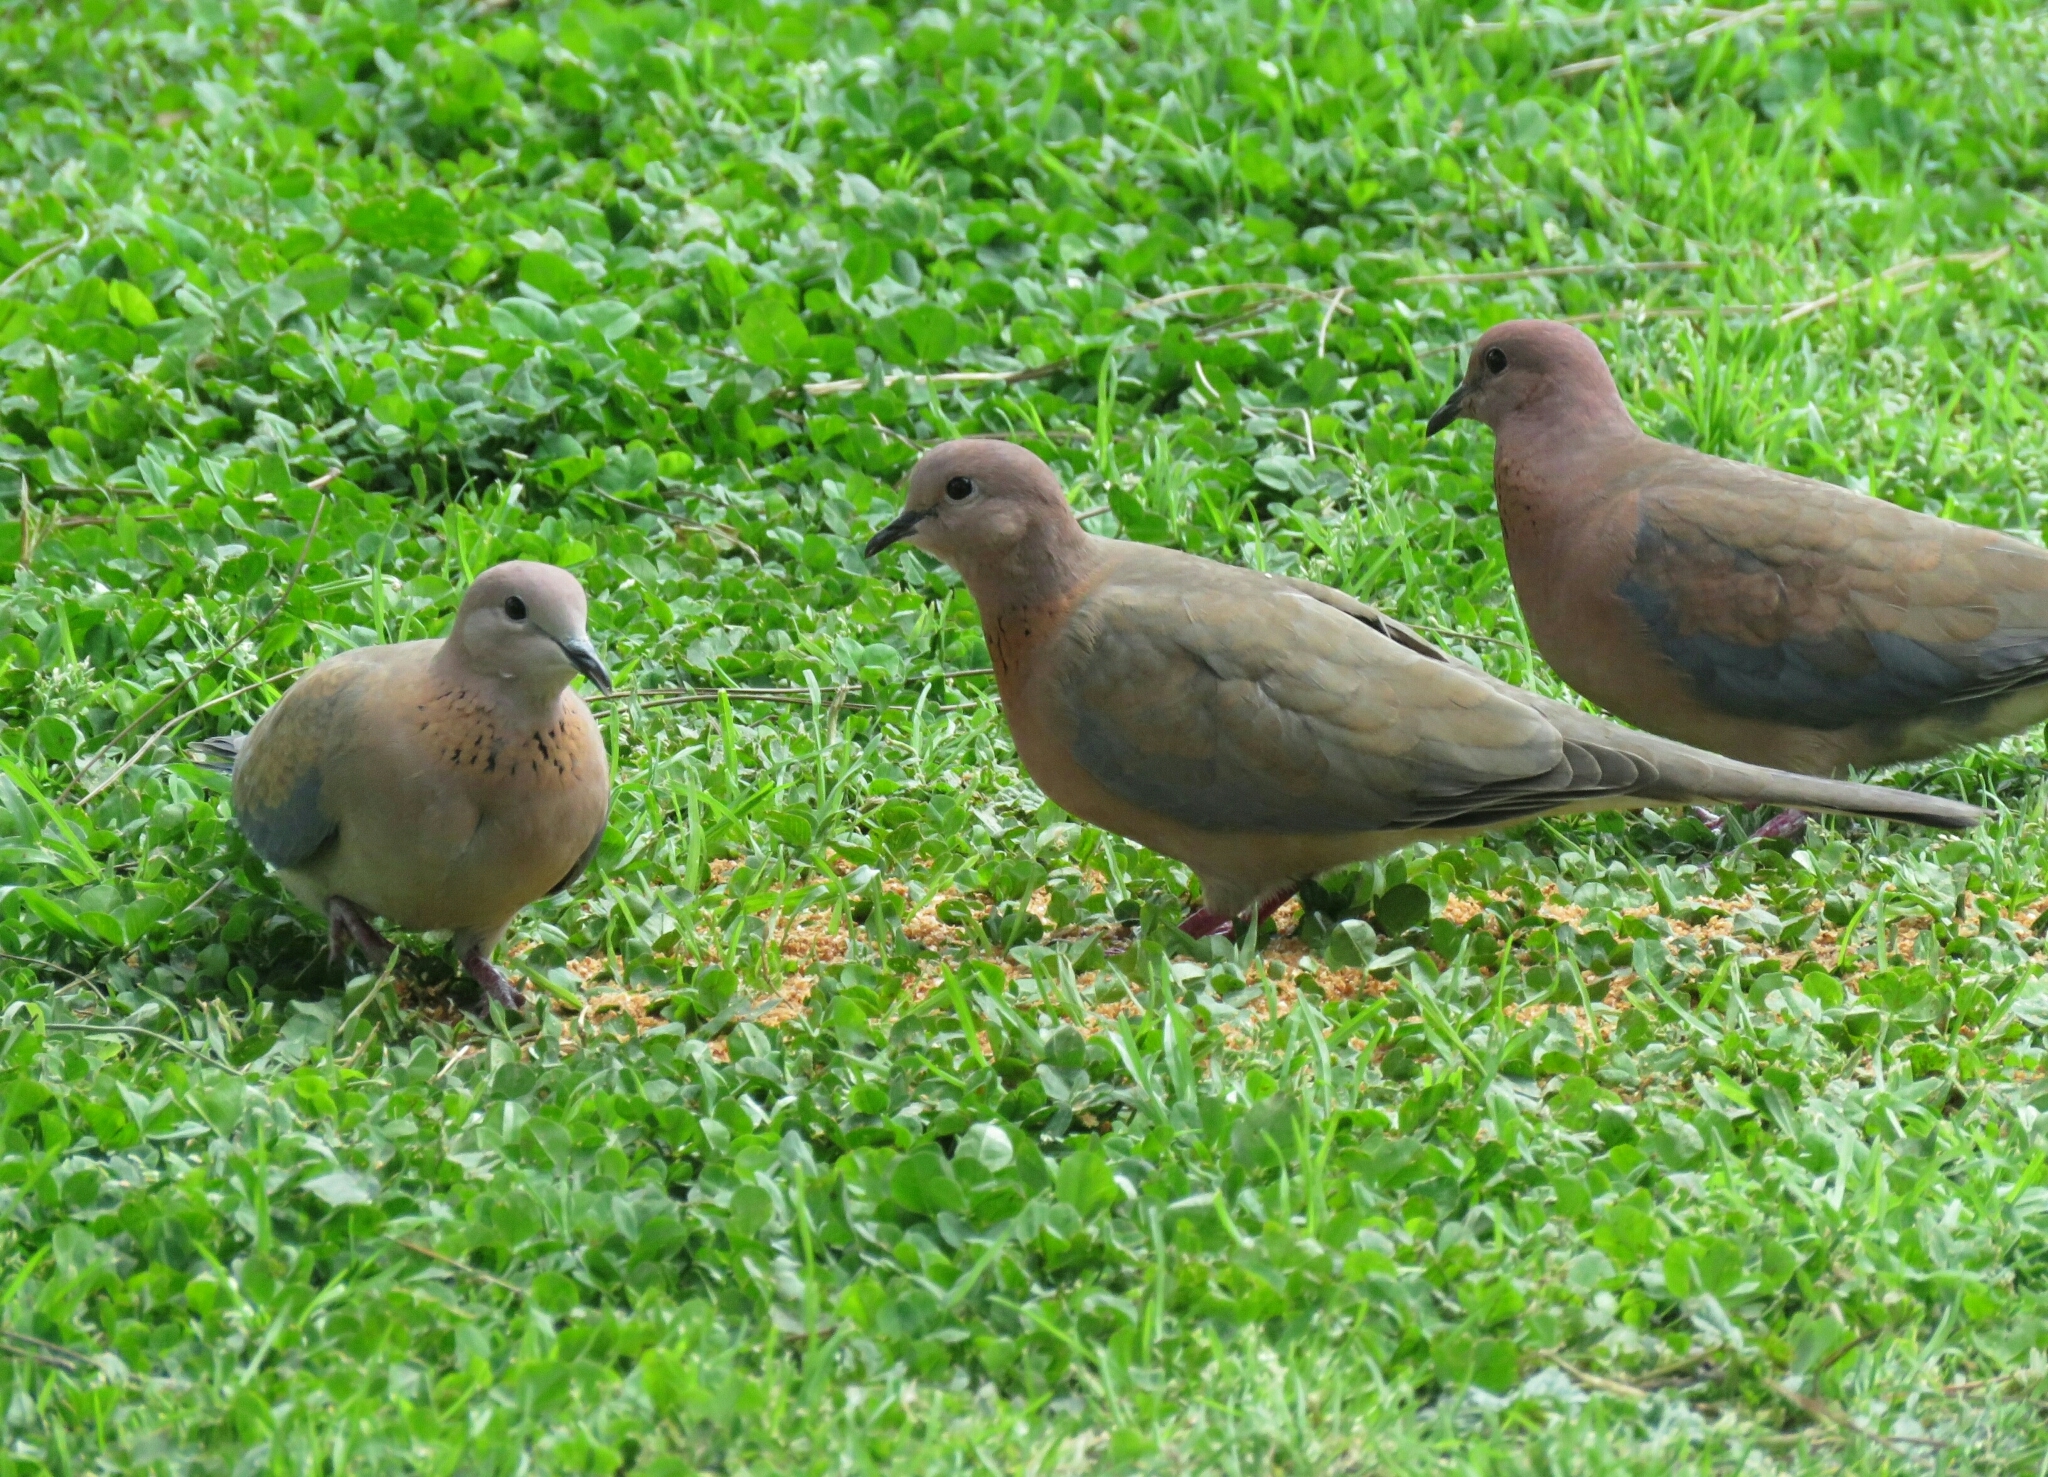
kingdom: Animalia
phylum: Chordata
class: Aves
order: Columbiformes
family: Columbidae
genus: Spilopelia
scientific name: Spilopelia senegalensis
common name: Laughing dove
